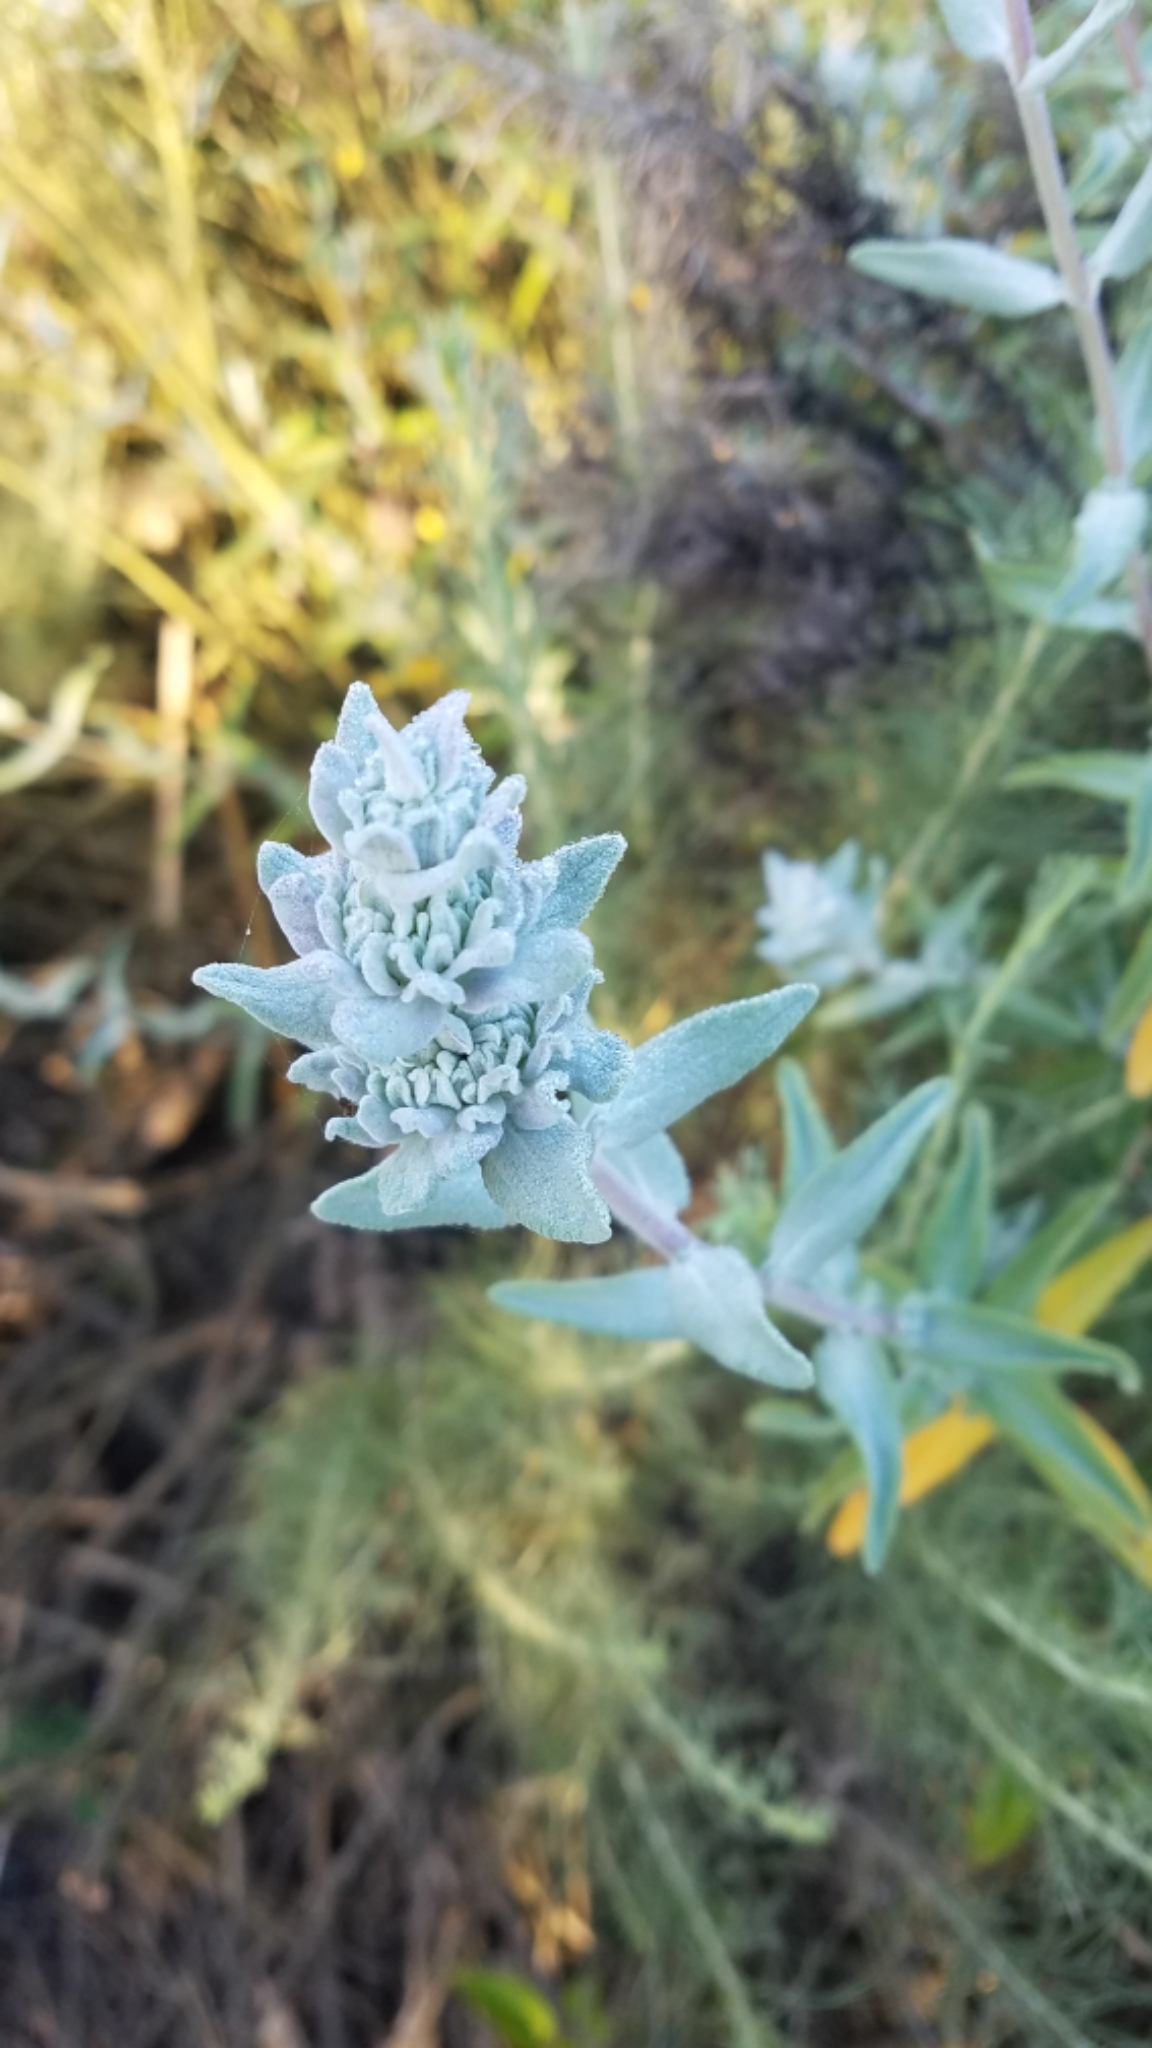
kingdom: Plantae
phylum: Tracheophyta
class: Magnoliopsida
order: Lamiales
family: Lamiaceae
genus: Salvia
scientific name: Salvia leucophylla
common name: Purple sage
